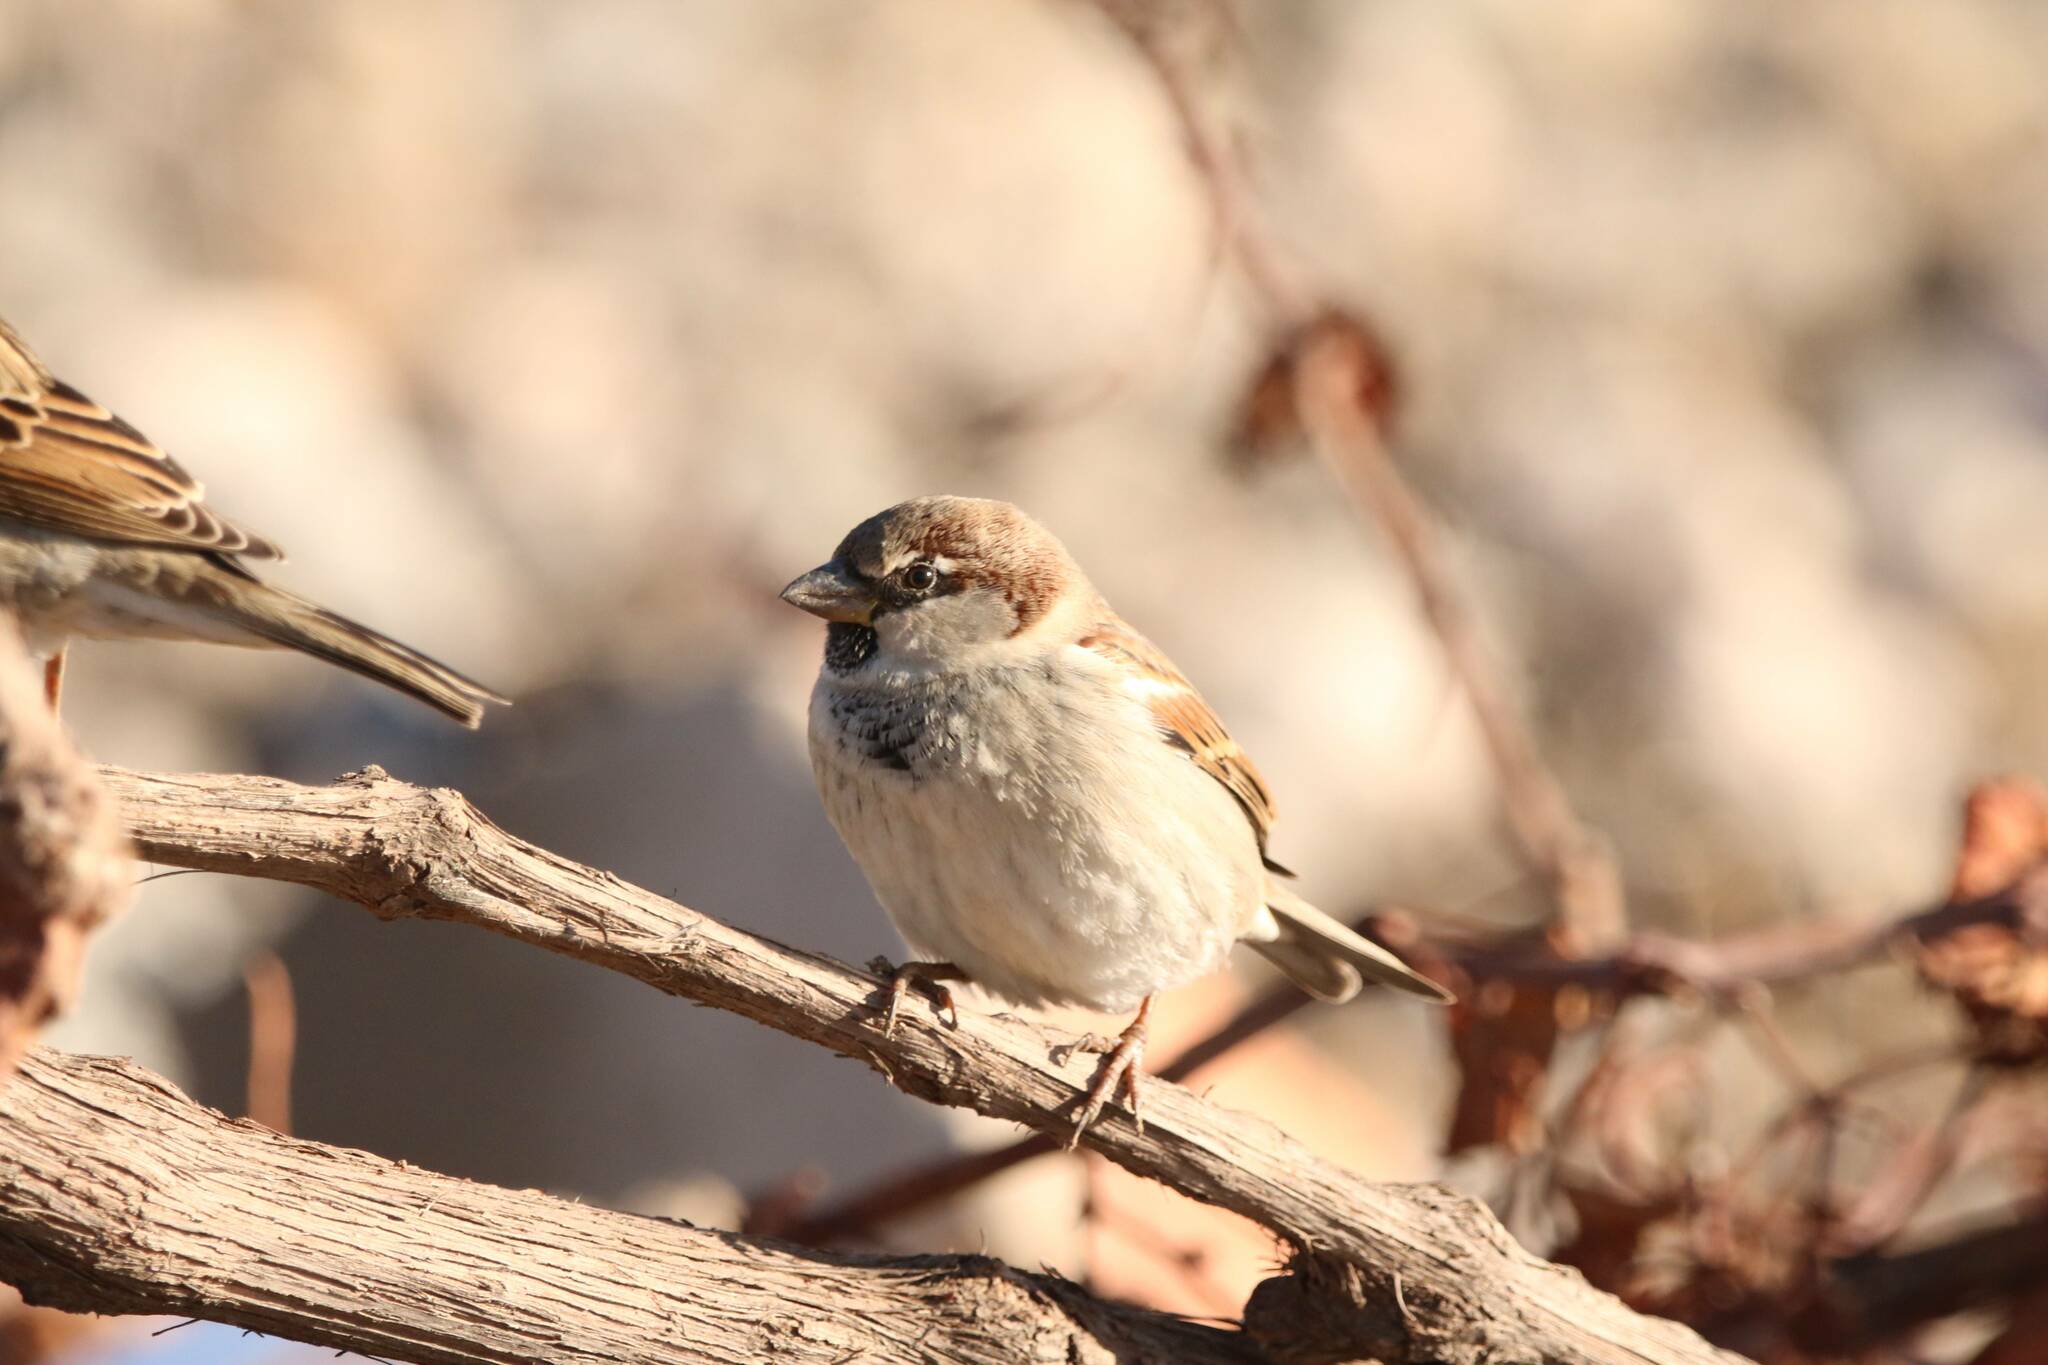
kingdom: Animalia
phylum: Chordata
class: Aves
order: Passeriformes
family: Passeridae
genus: Passer
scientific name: Passer domesticus
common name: House sparrow
